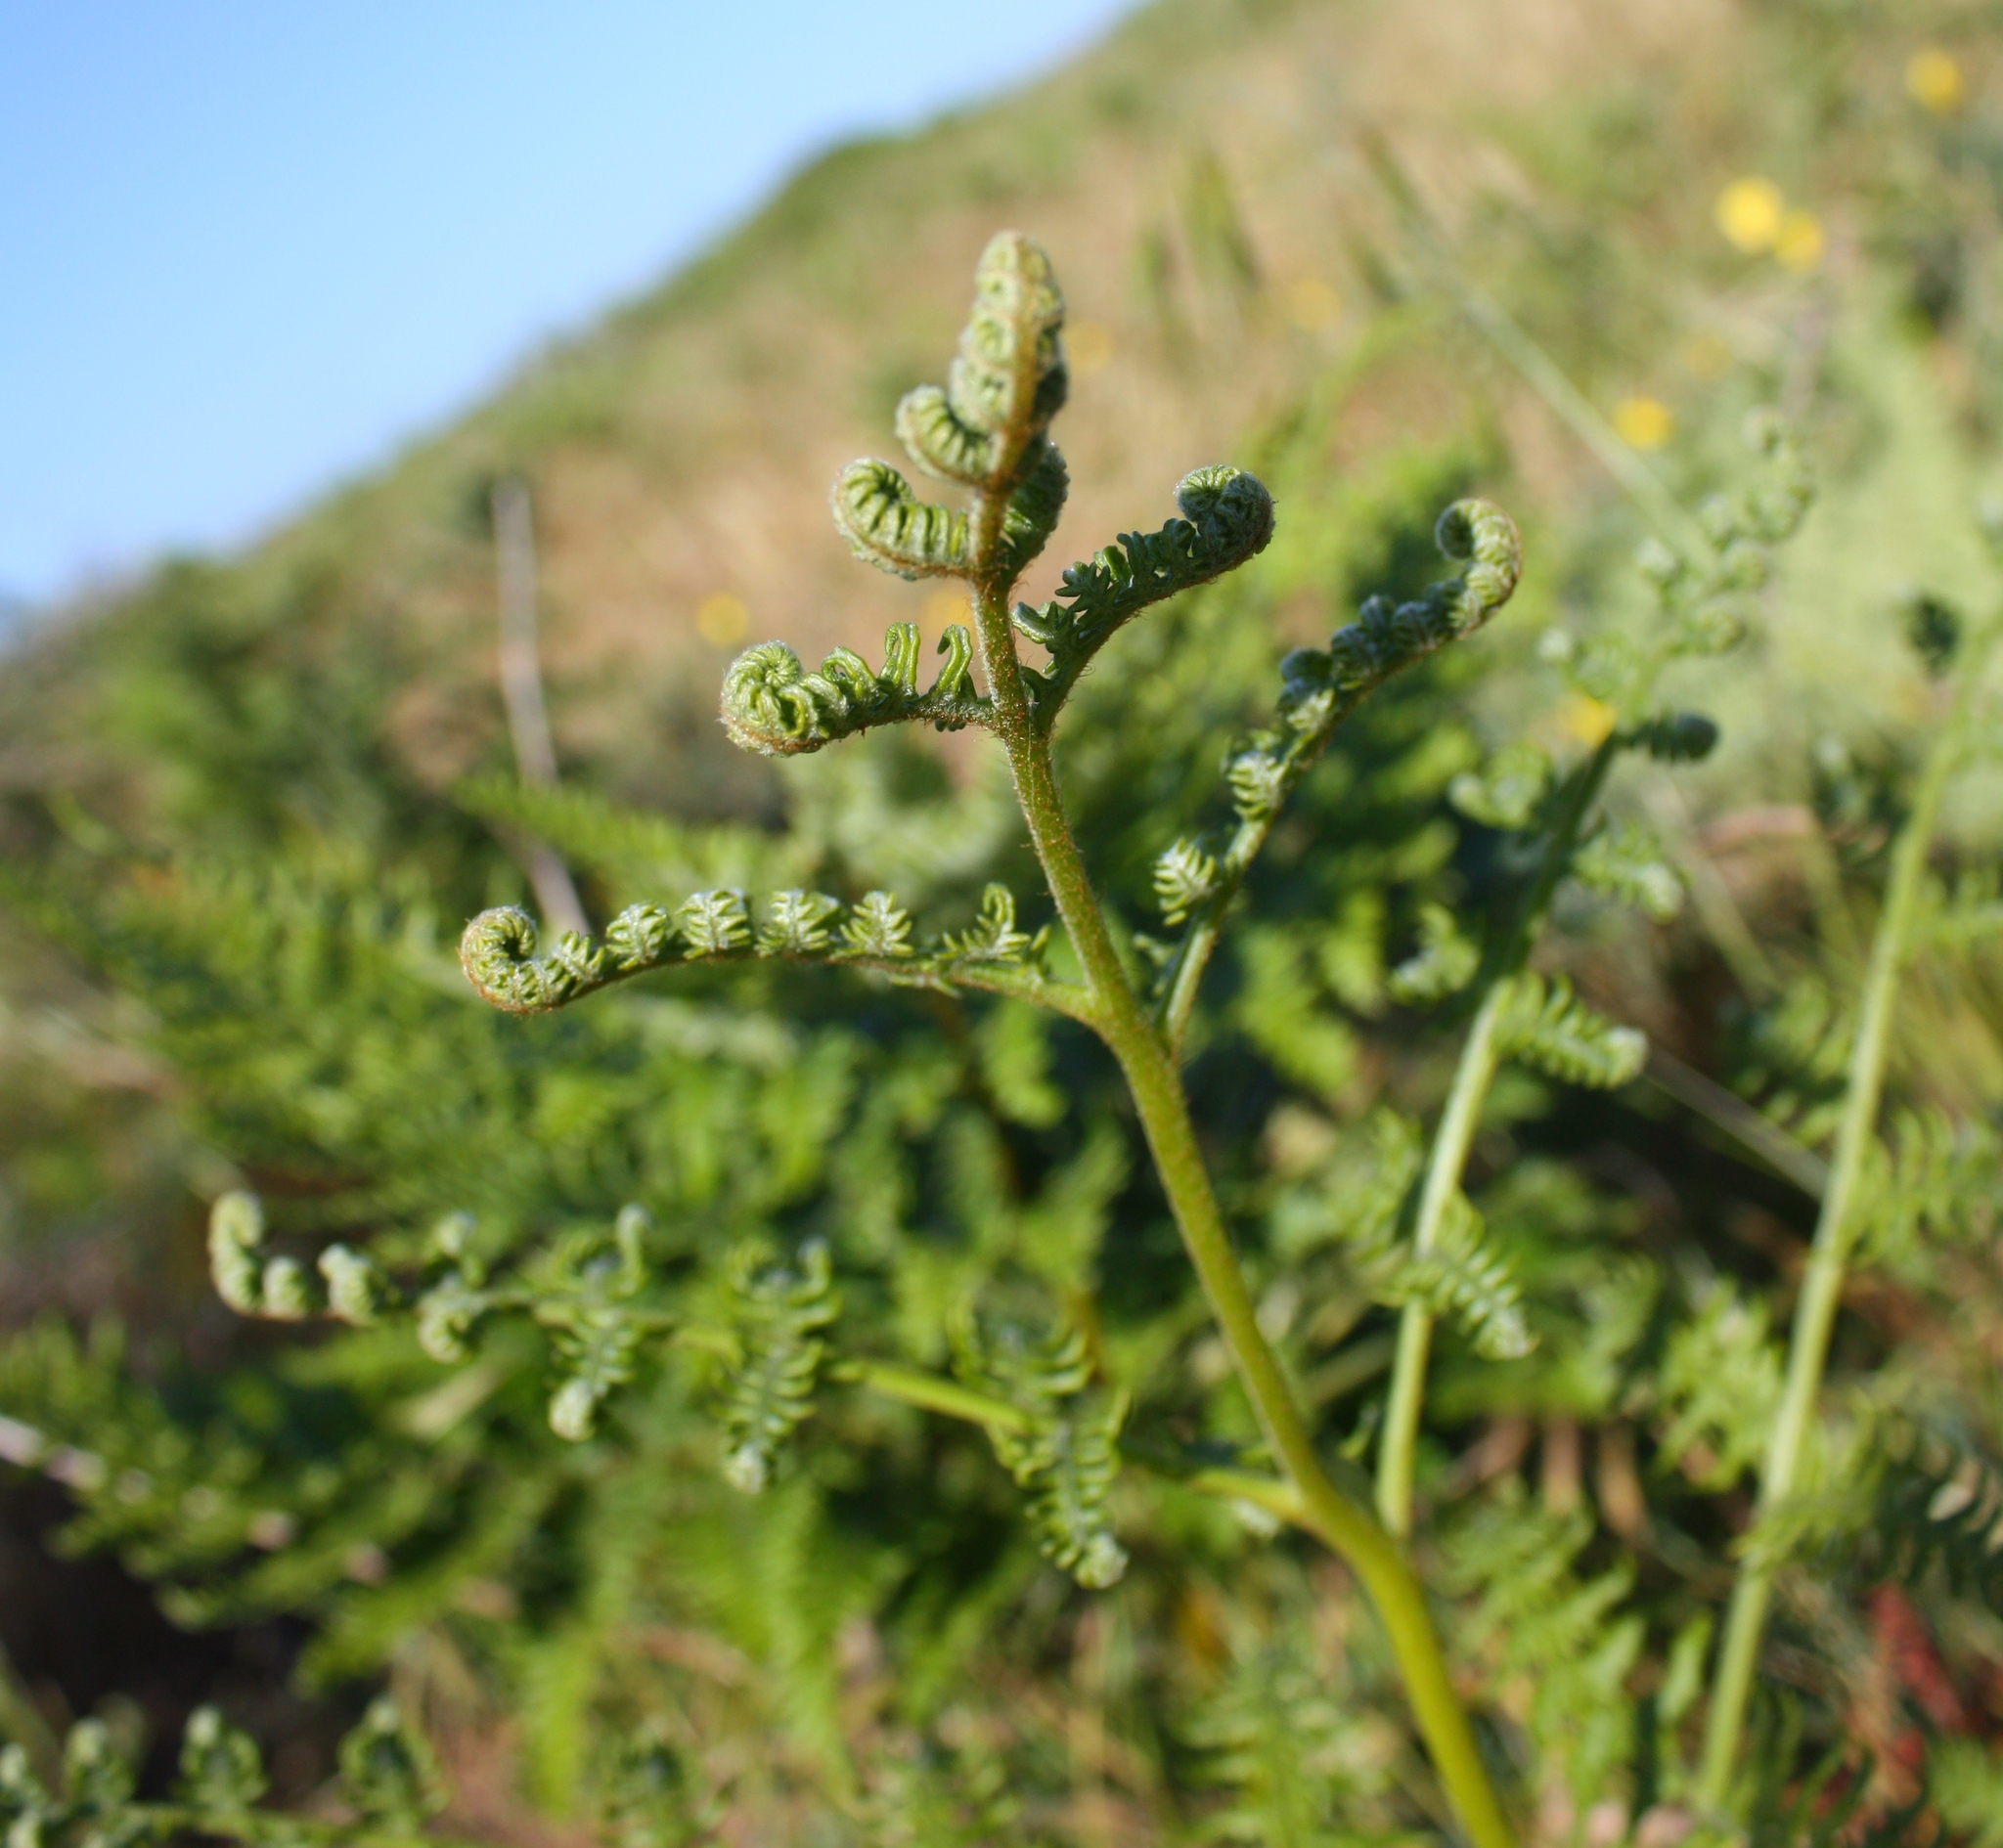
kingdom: Plantae
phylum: Tracheophyta
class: Polypodiopsida
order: Polypodiales
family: Dennstaedtiaceae
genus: Pteridium
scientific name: Pteridium aquilinum
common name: Bracken
